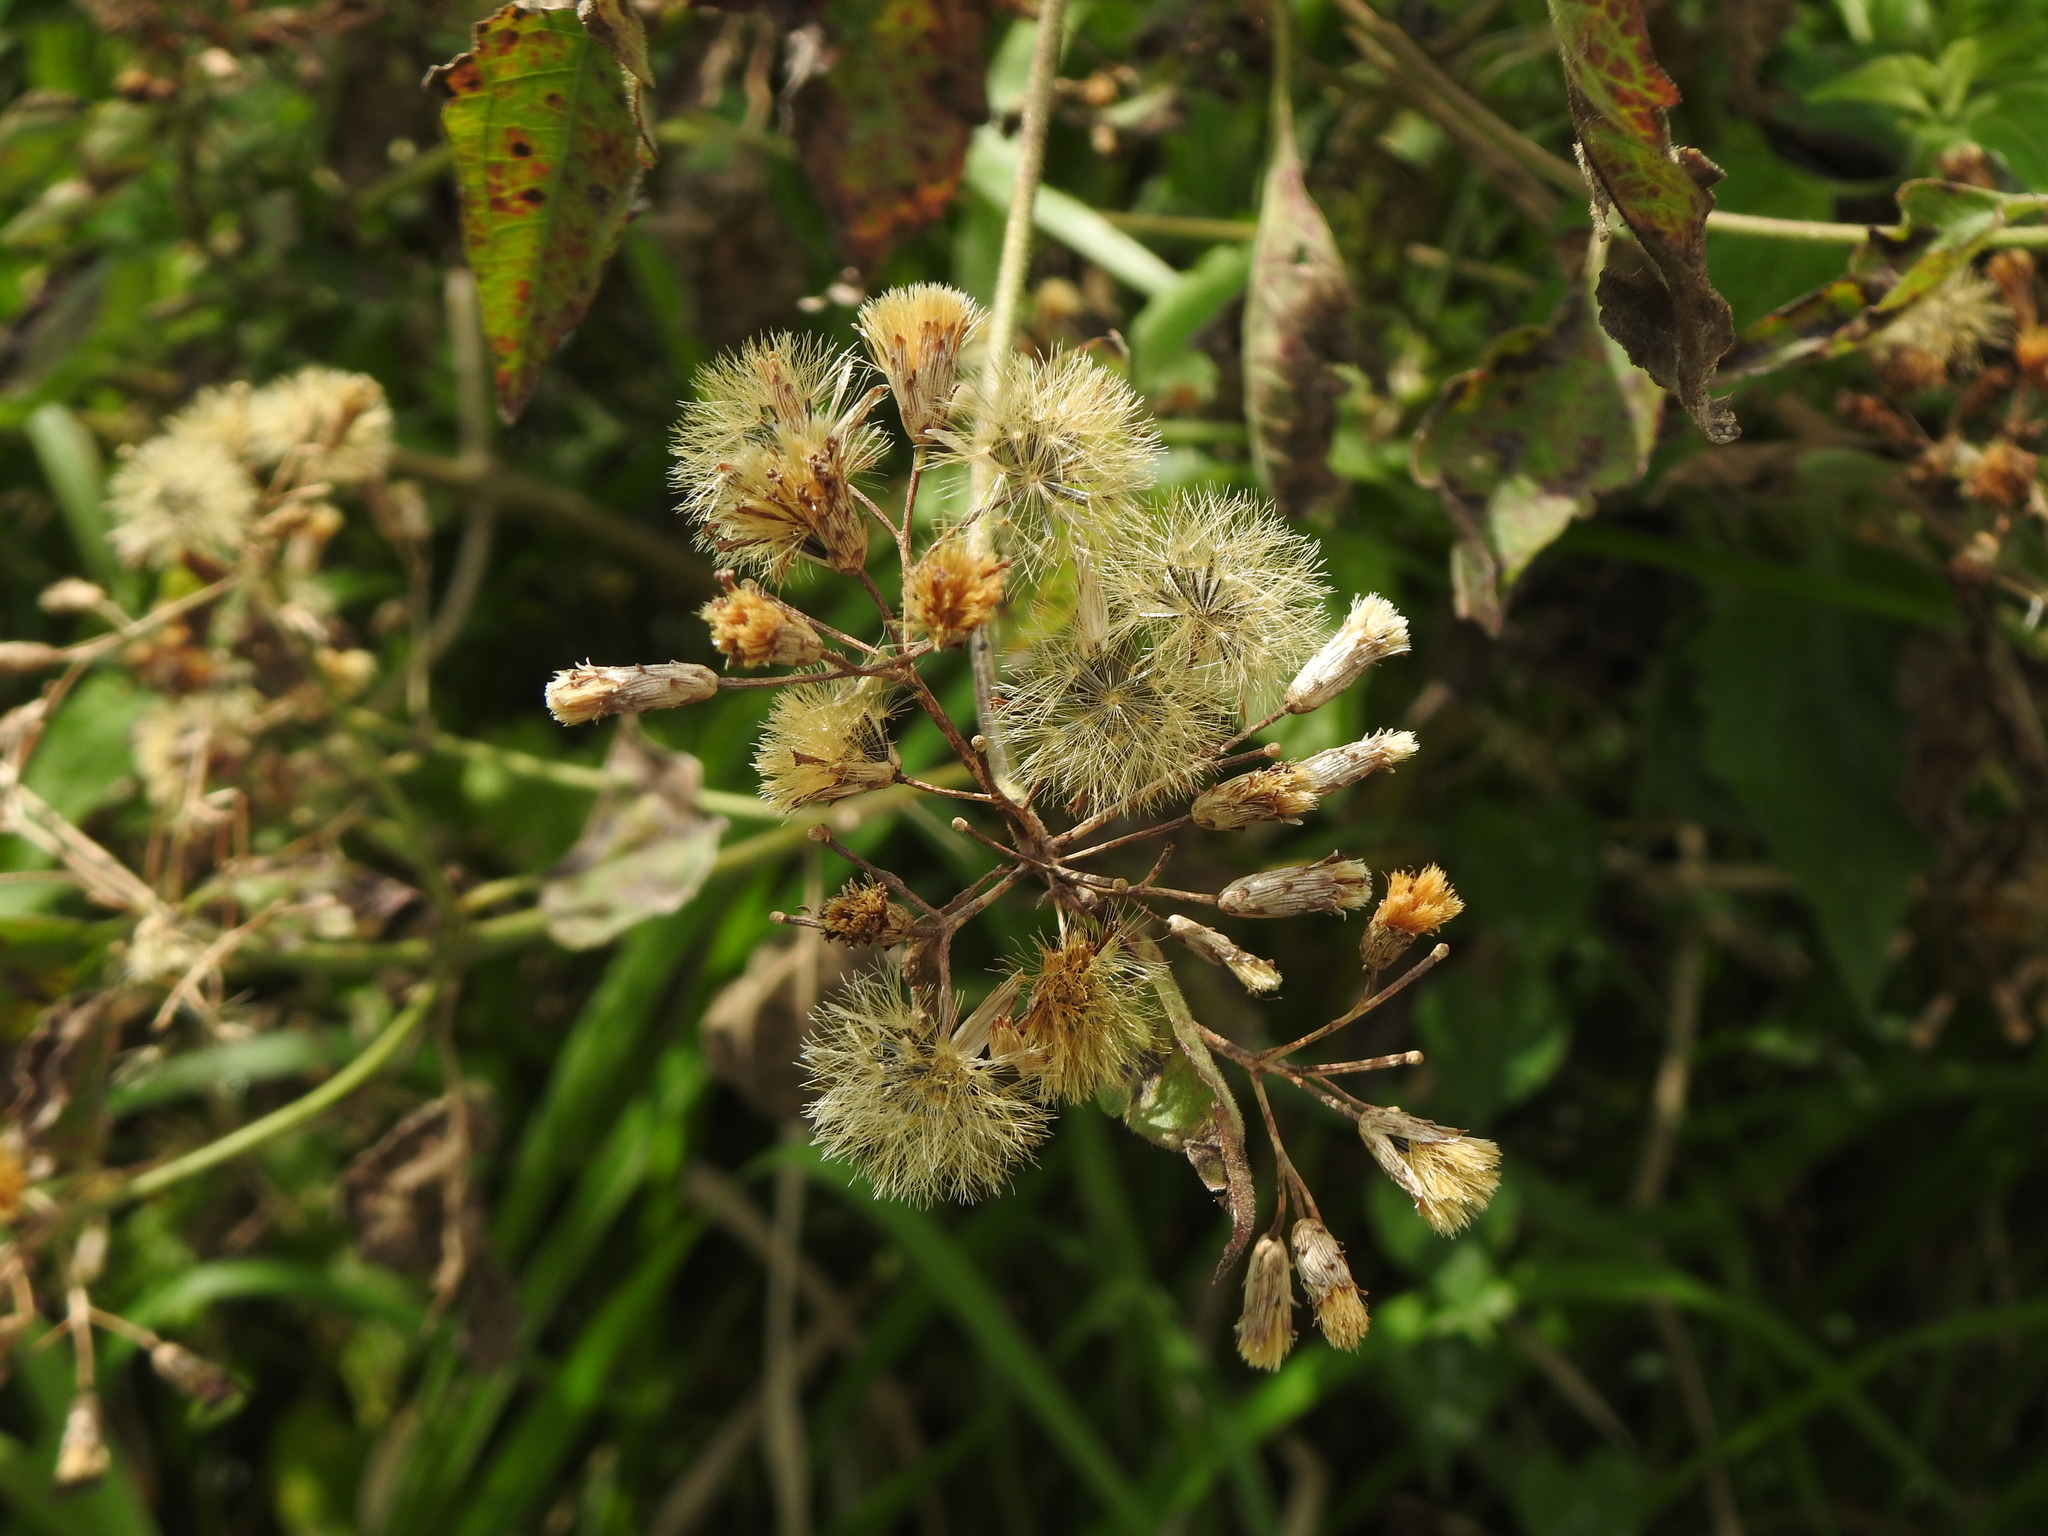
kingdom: Plantae
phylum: Tracheophyta
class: Magnoliopsida
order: Asterales
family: Asteraceae
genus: Chromolaena
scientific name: Chromolaena odorata
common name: Siamweed
